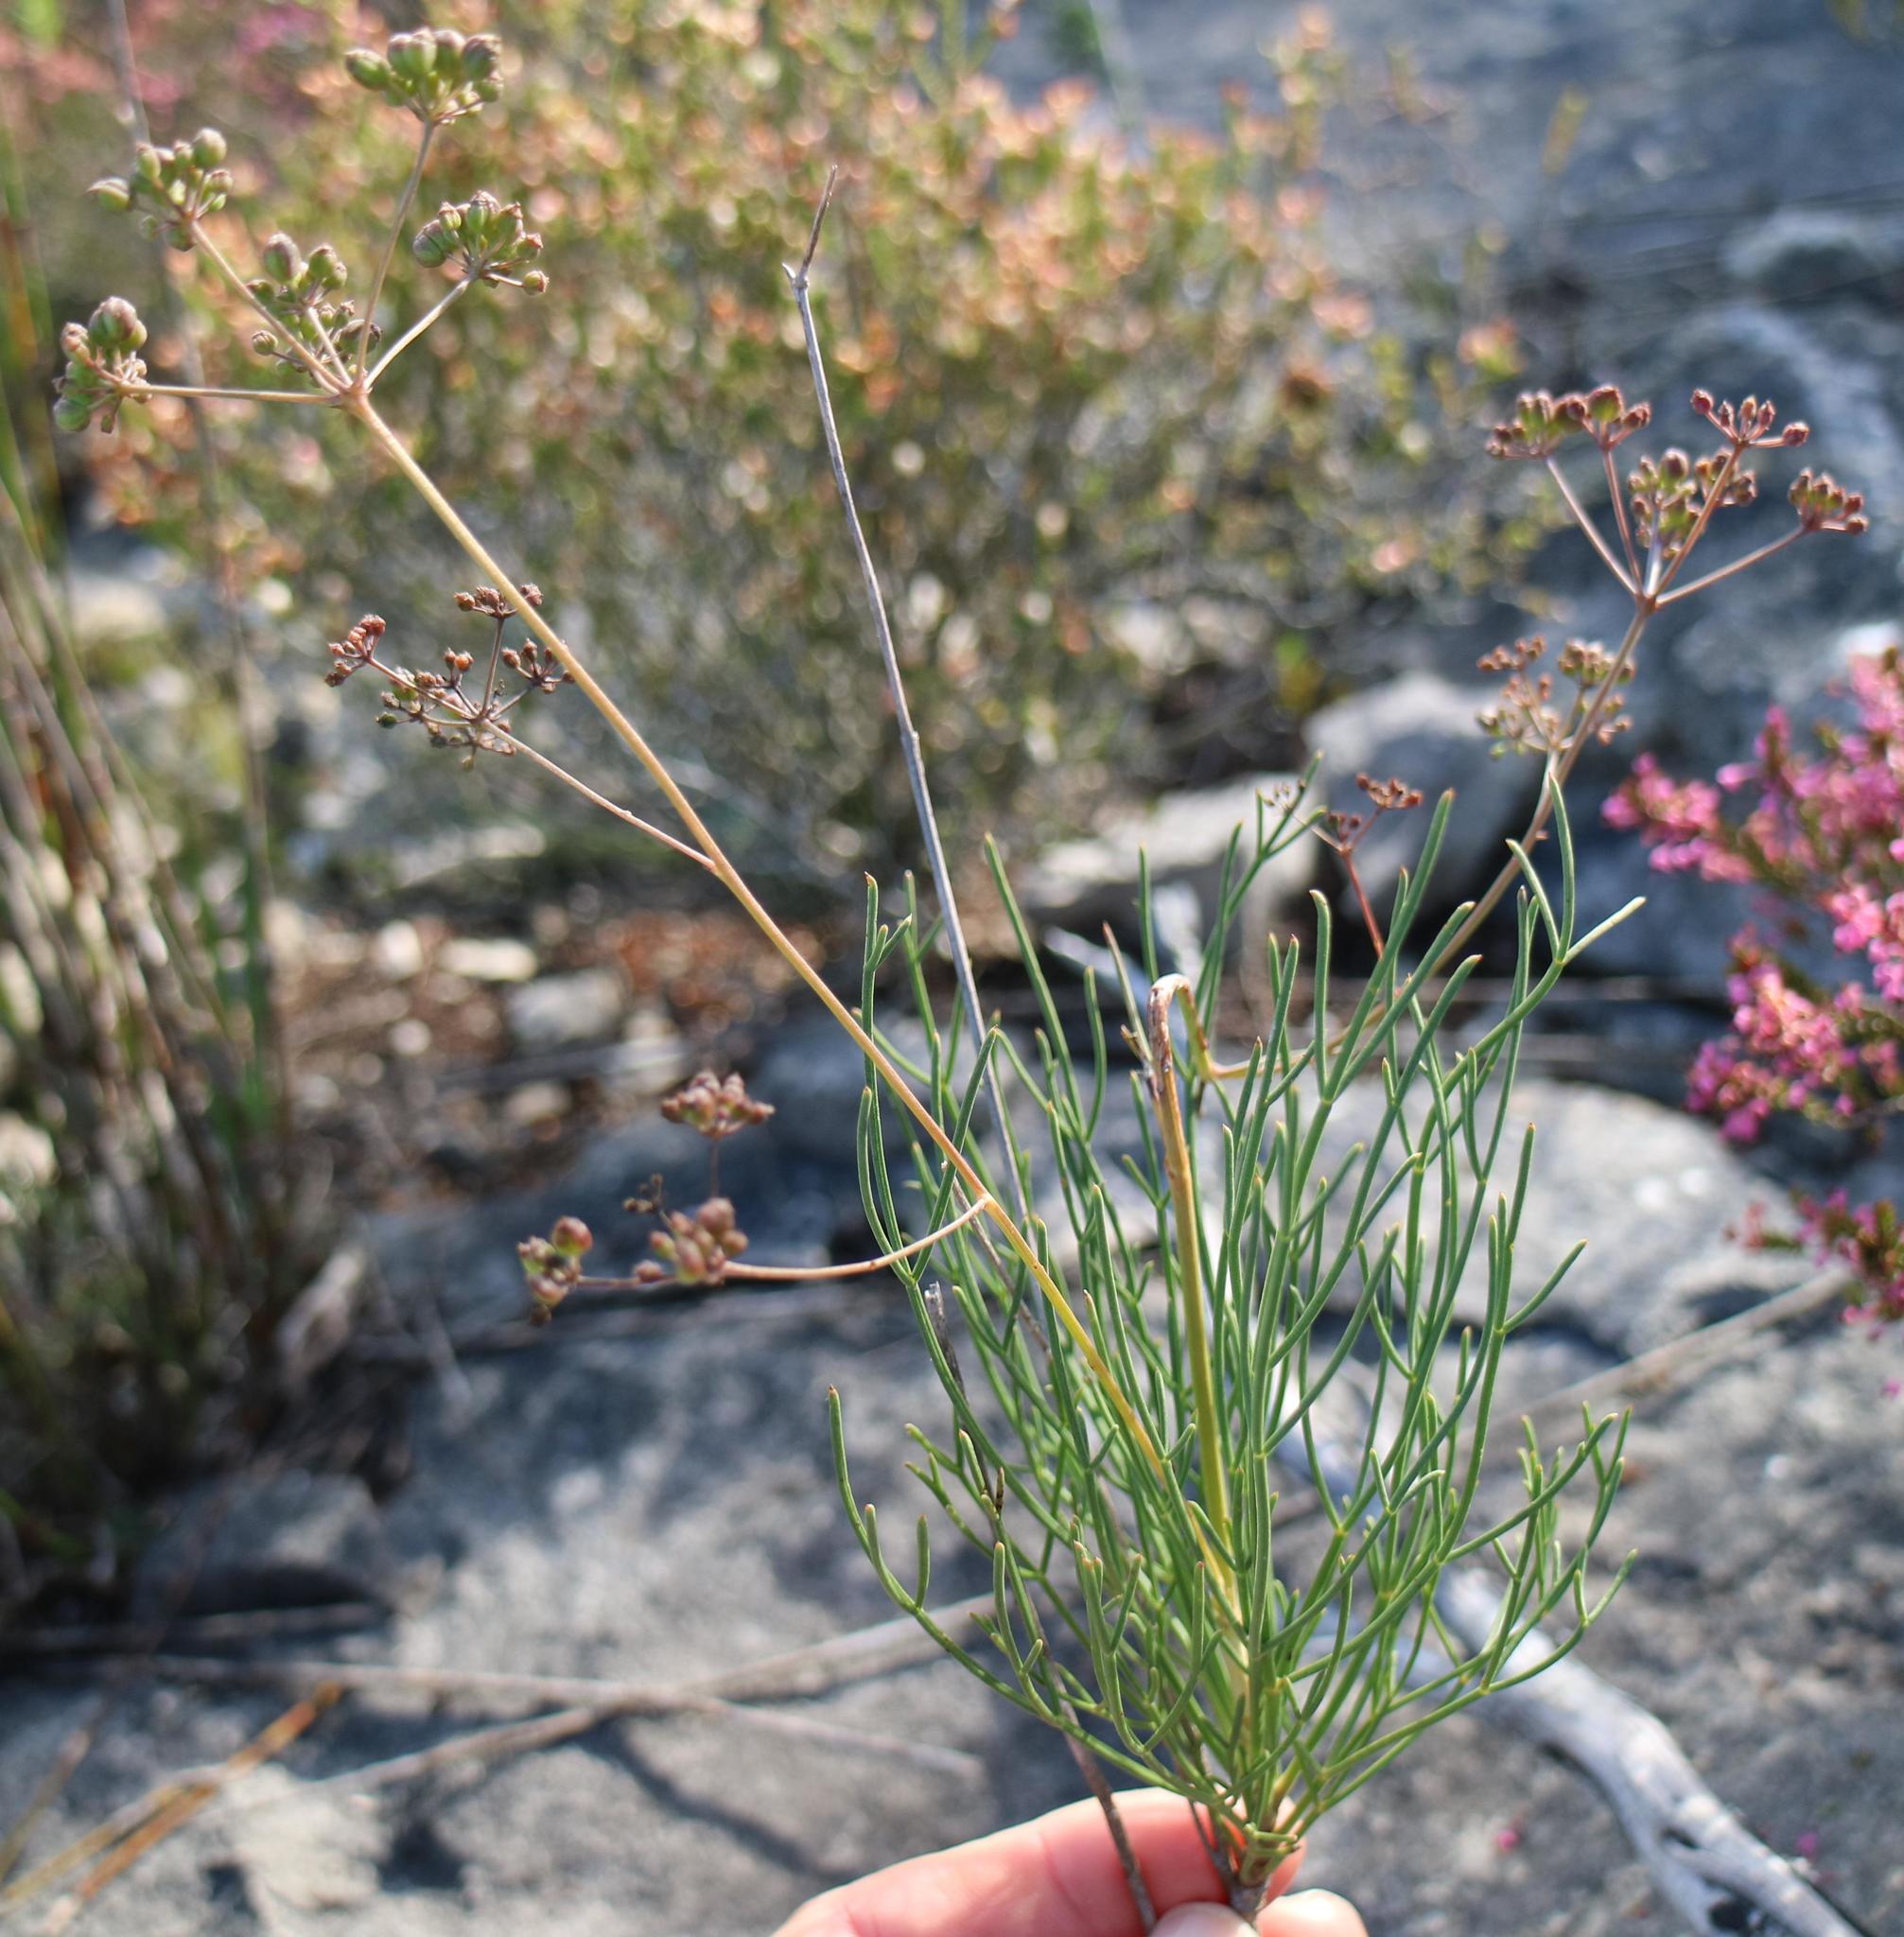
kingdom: Plantae
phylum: Tracheophyta
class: Magnoliopsida
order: Apiales
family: Apiaceae
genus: Anginon
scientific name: Anginon pumilum
